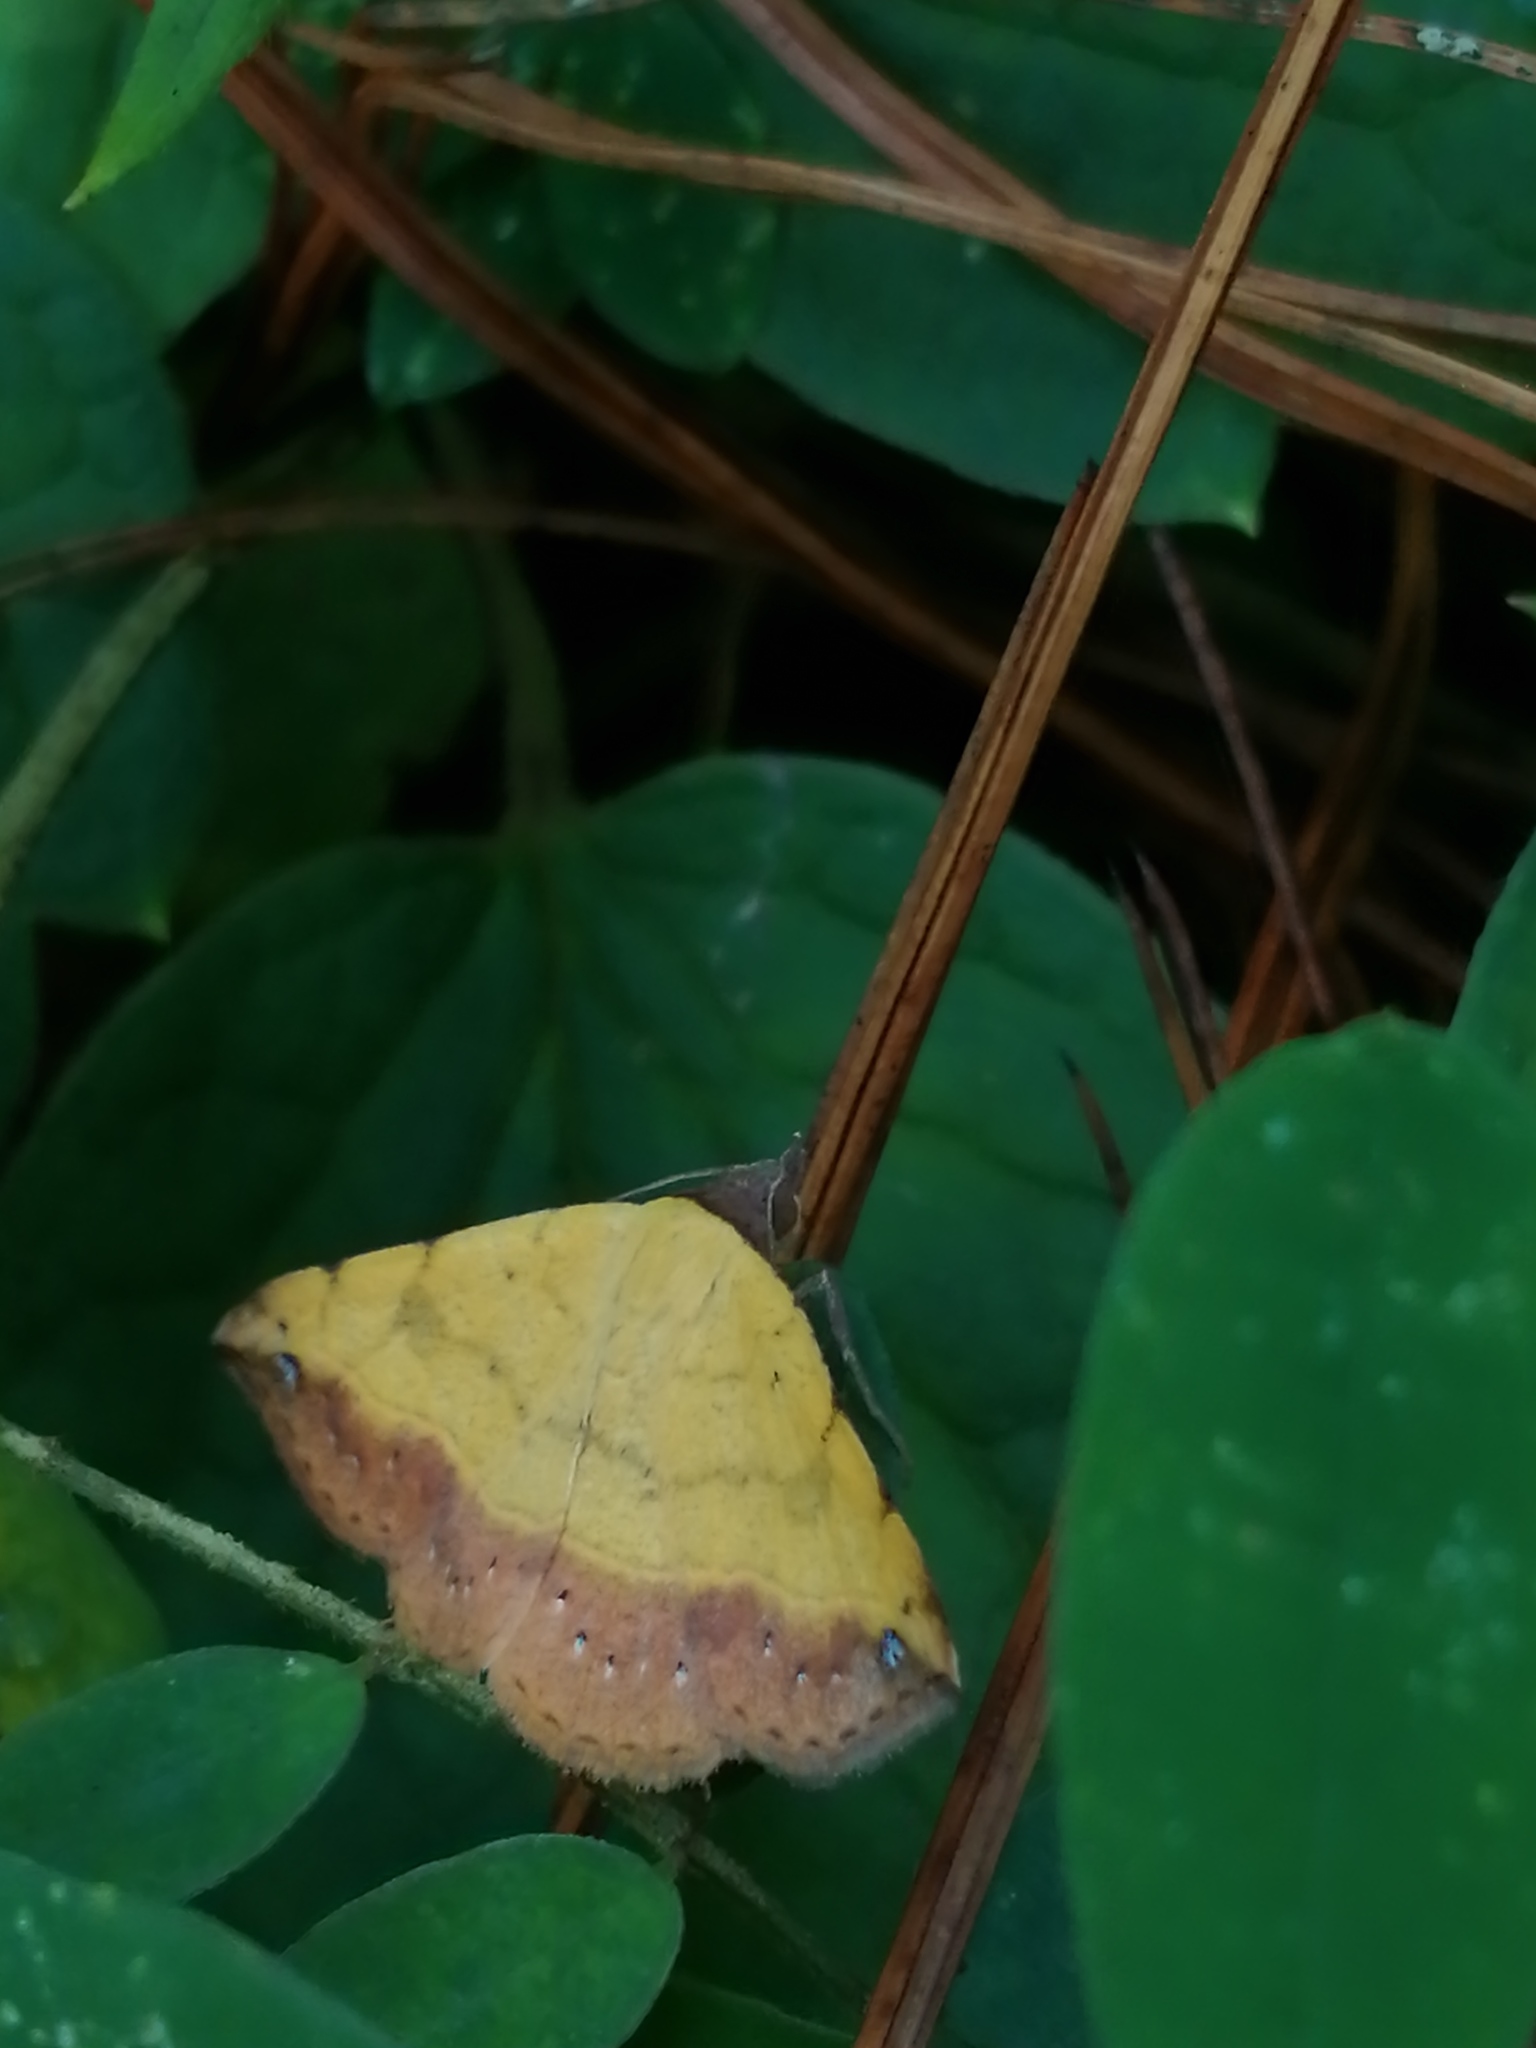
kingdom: Animalia
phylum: Arthropoda
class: Insecta
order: Lepidoptera
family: Erebidae
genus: Hemeroplanis
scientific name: Hemeroplanis scopulepes
